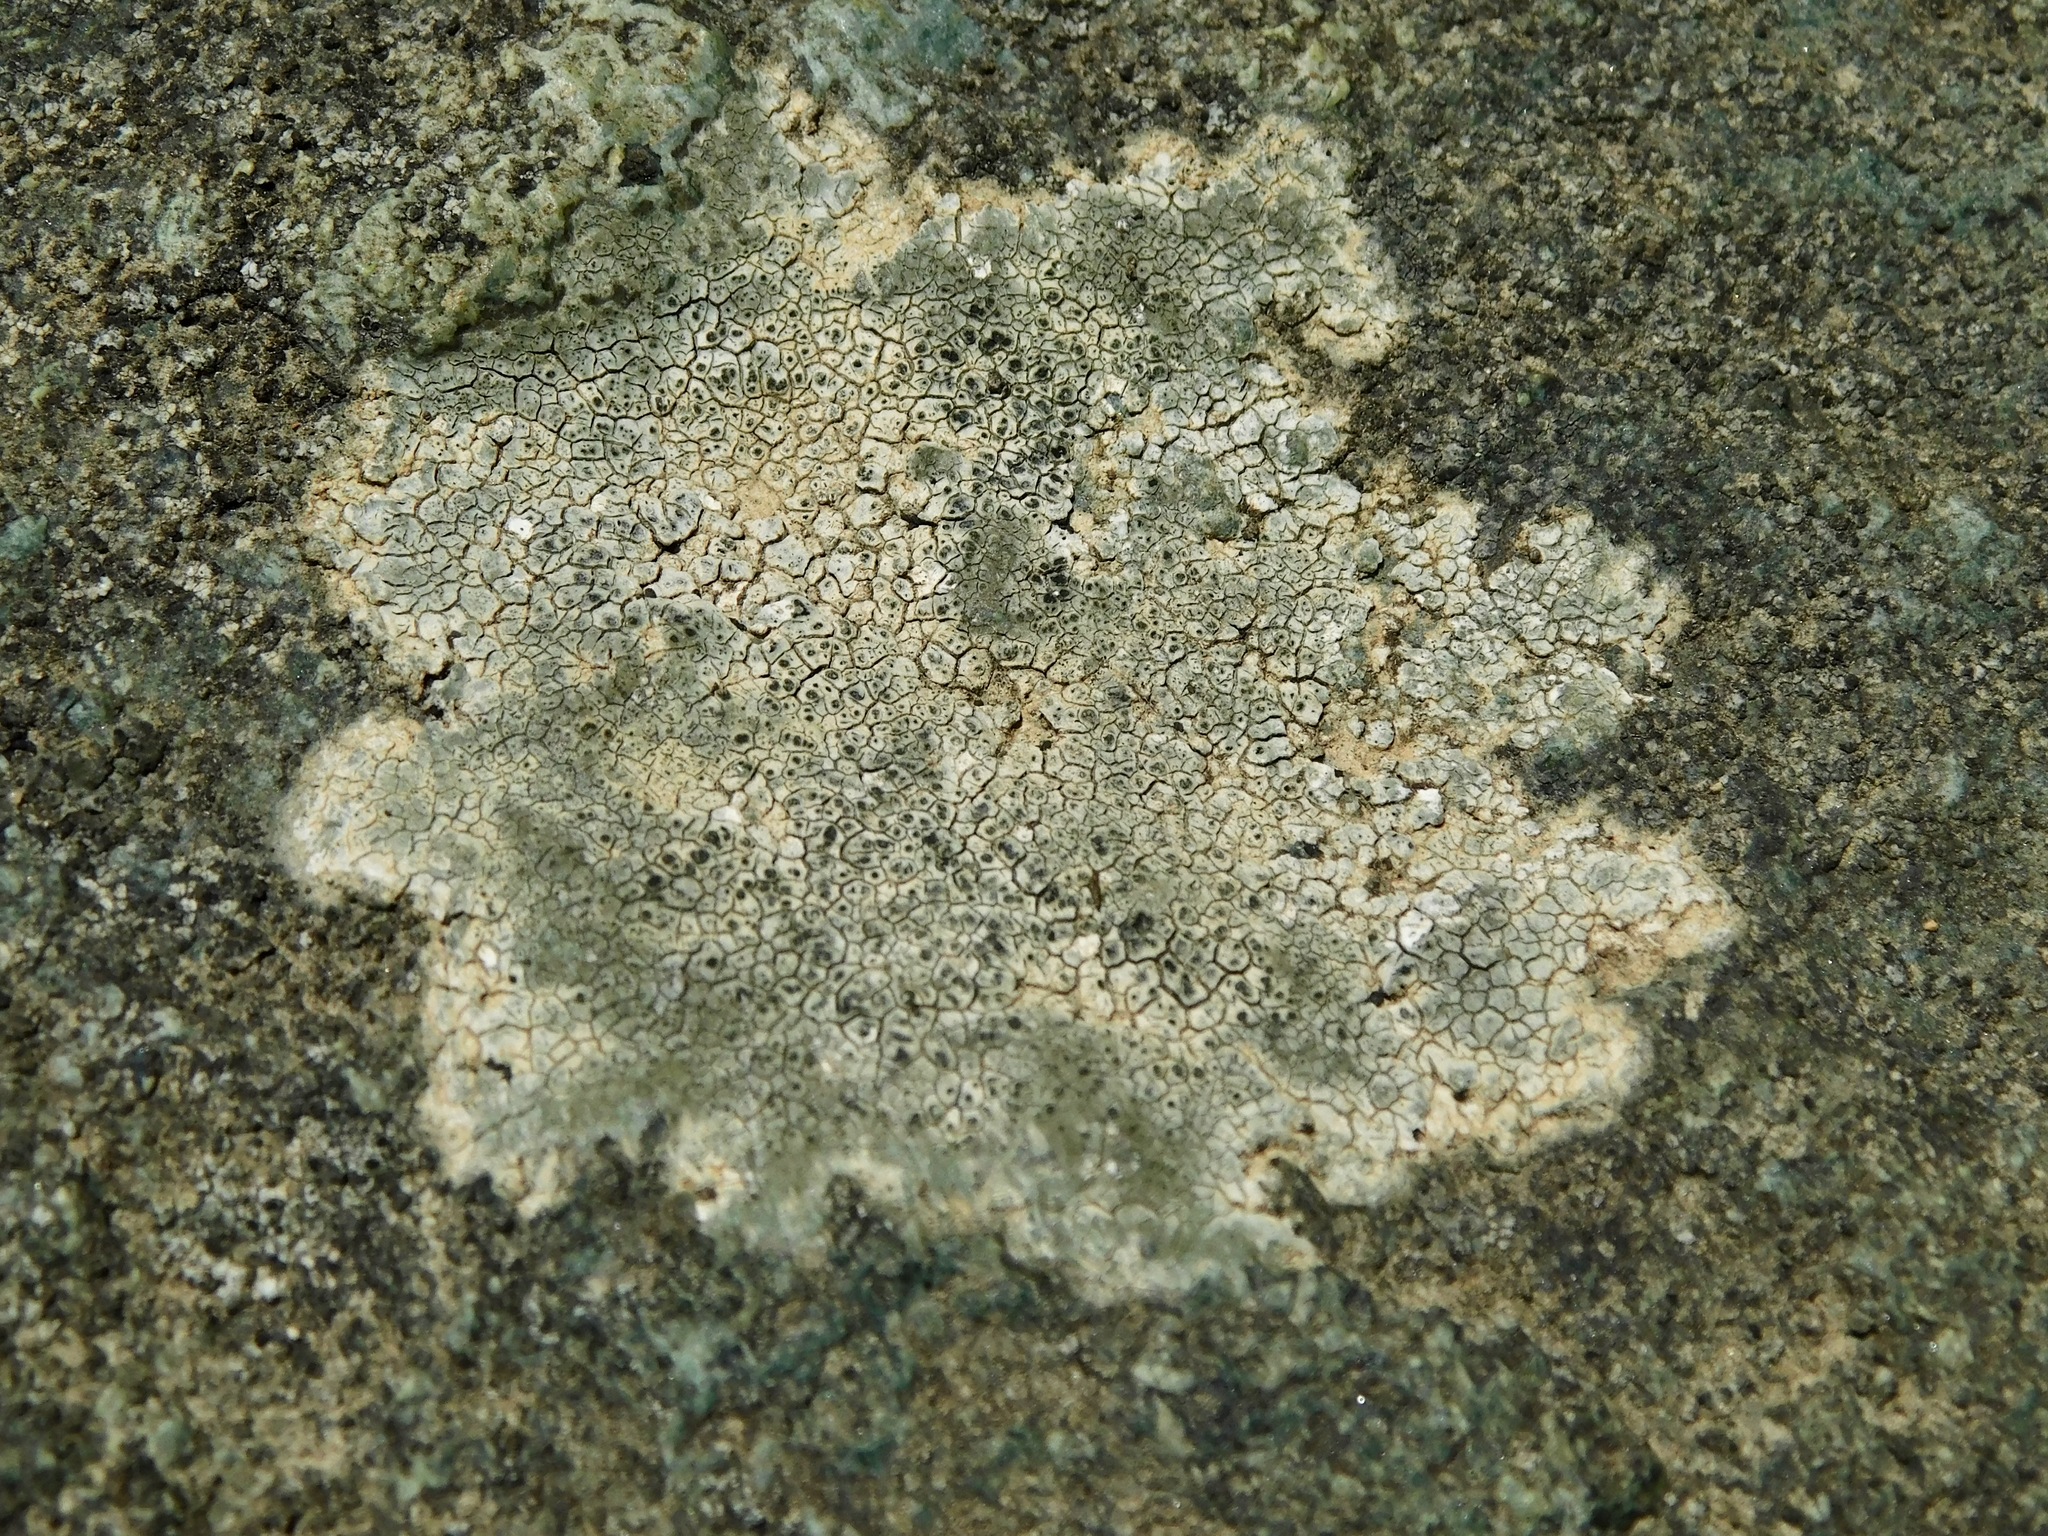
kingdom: Fungi
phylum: Ascomycota
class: Lecanoromycetes
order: Pertusariales
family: Megasporaceae
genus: Aspicilia
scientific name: Aspicilia aquatica
